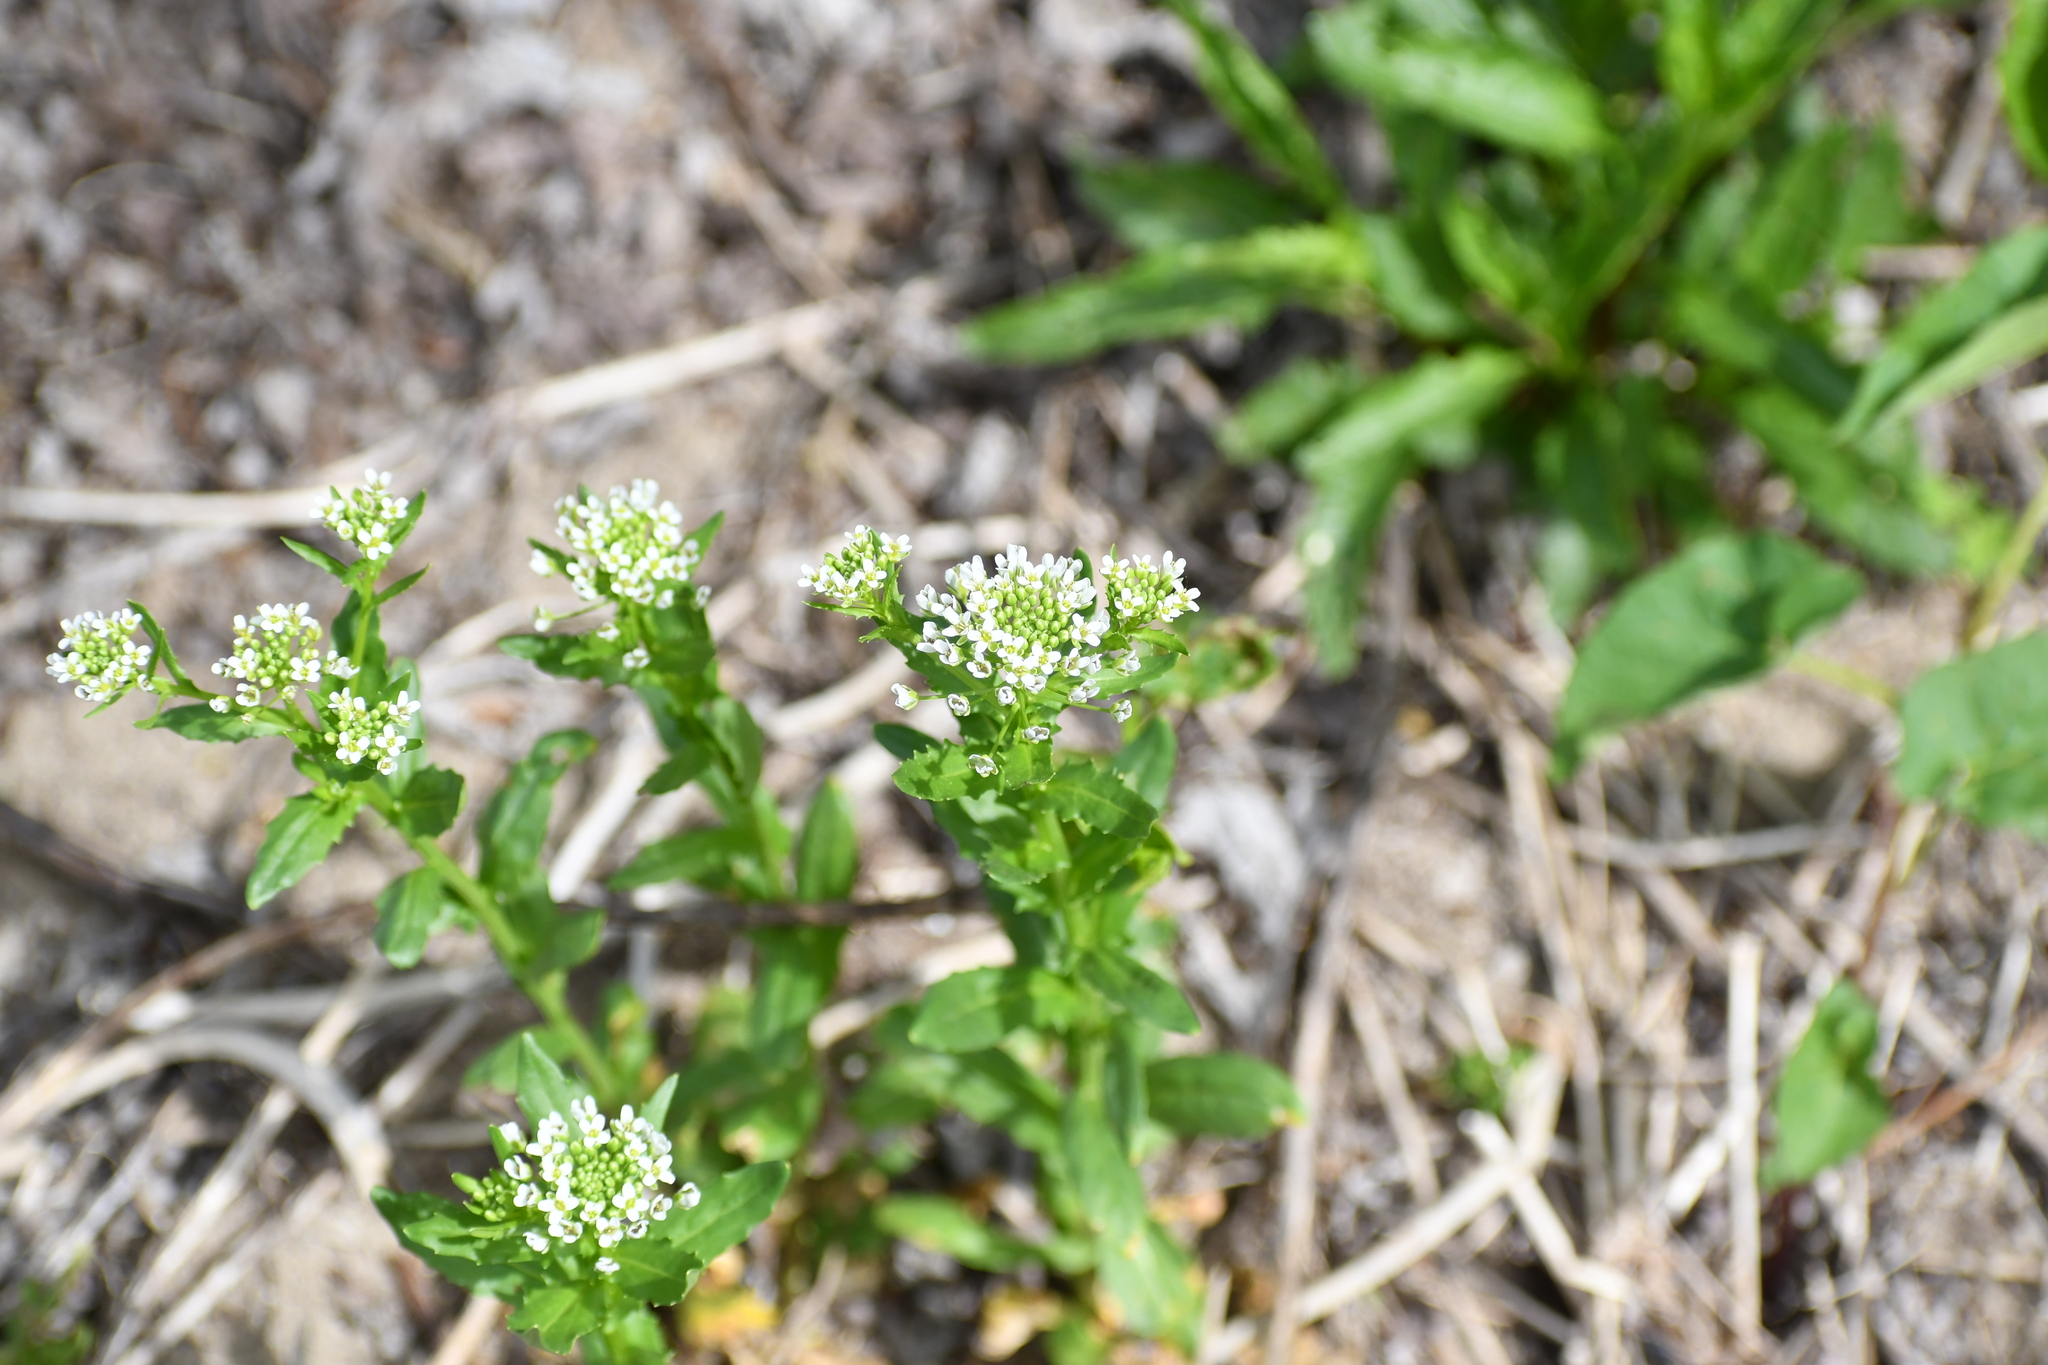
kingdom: Plantae
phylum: Tracheophyta
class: Magnoliopsida
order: Brassicales
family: Brassicaceae
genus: Thlaspi
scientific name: Thlaspi arvense
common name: Field pennycress
